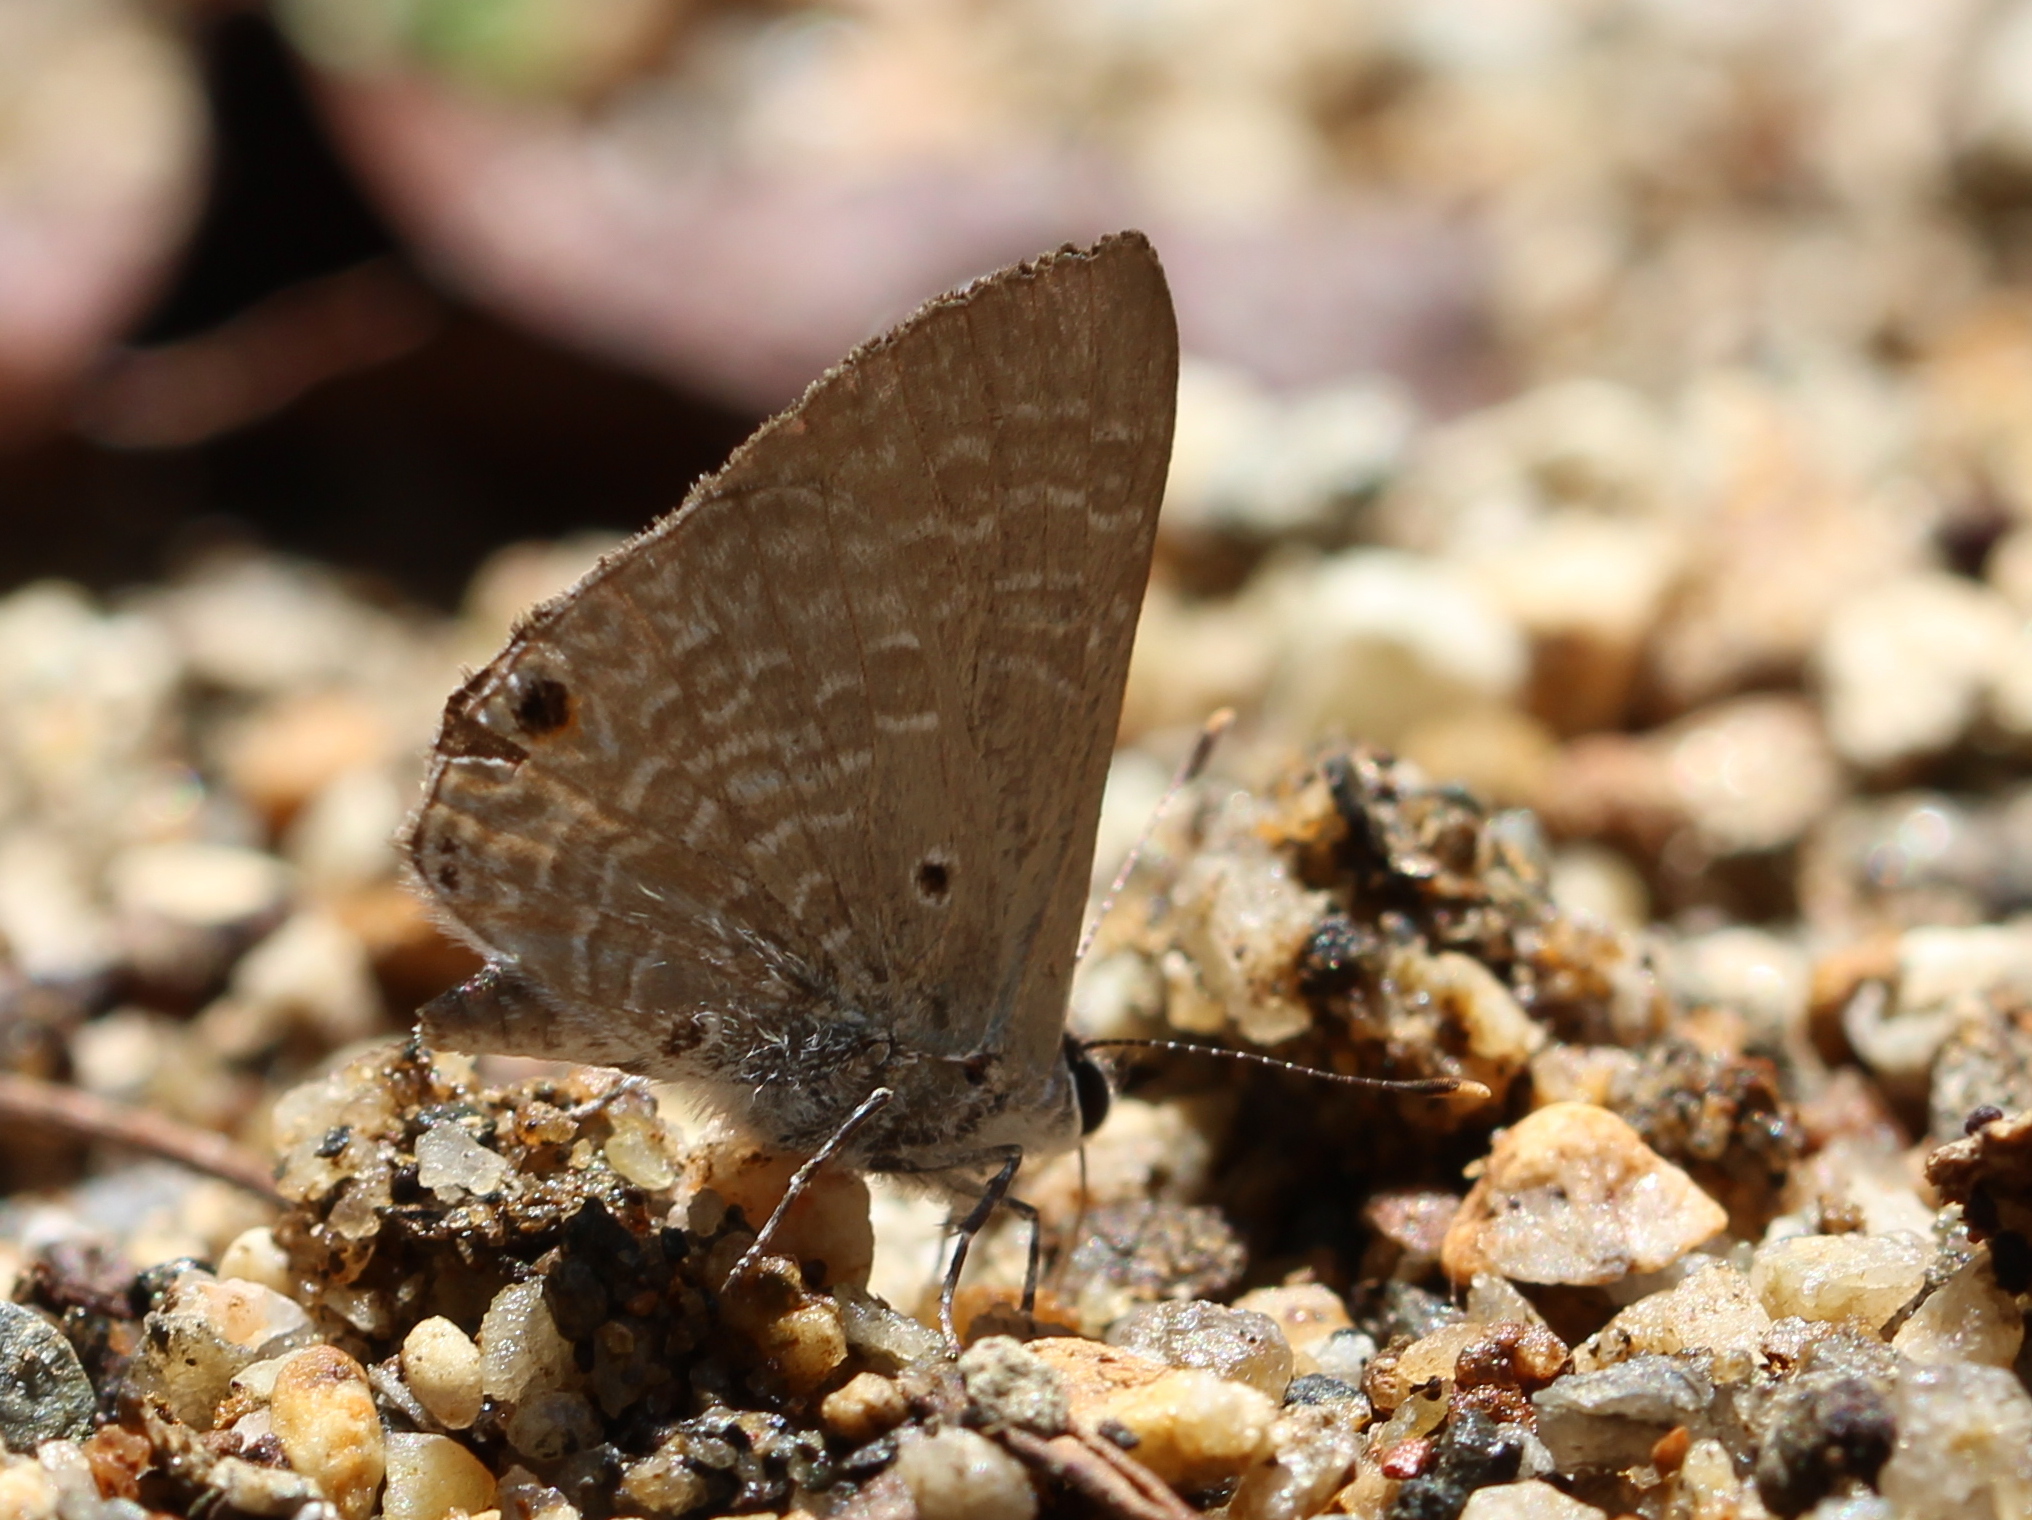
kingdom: Animalia
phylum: Arthropoda
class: Insecta
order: Lepidoptera
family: Lycaenidae
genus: Anthene
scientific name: Anthene lycaenina
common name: Pointed ciliate blue
